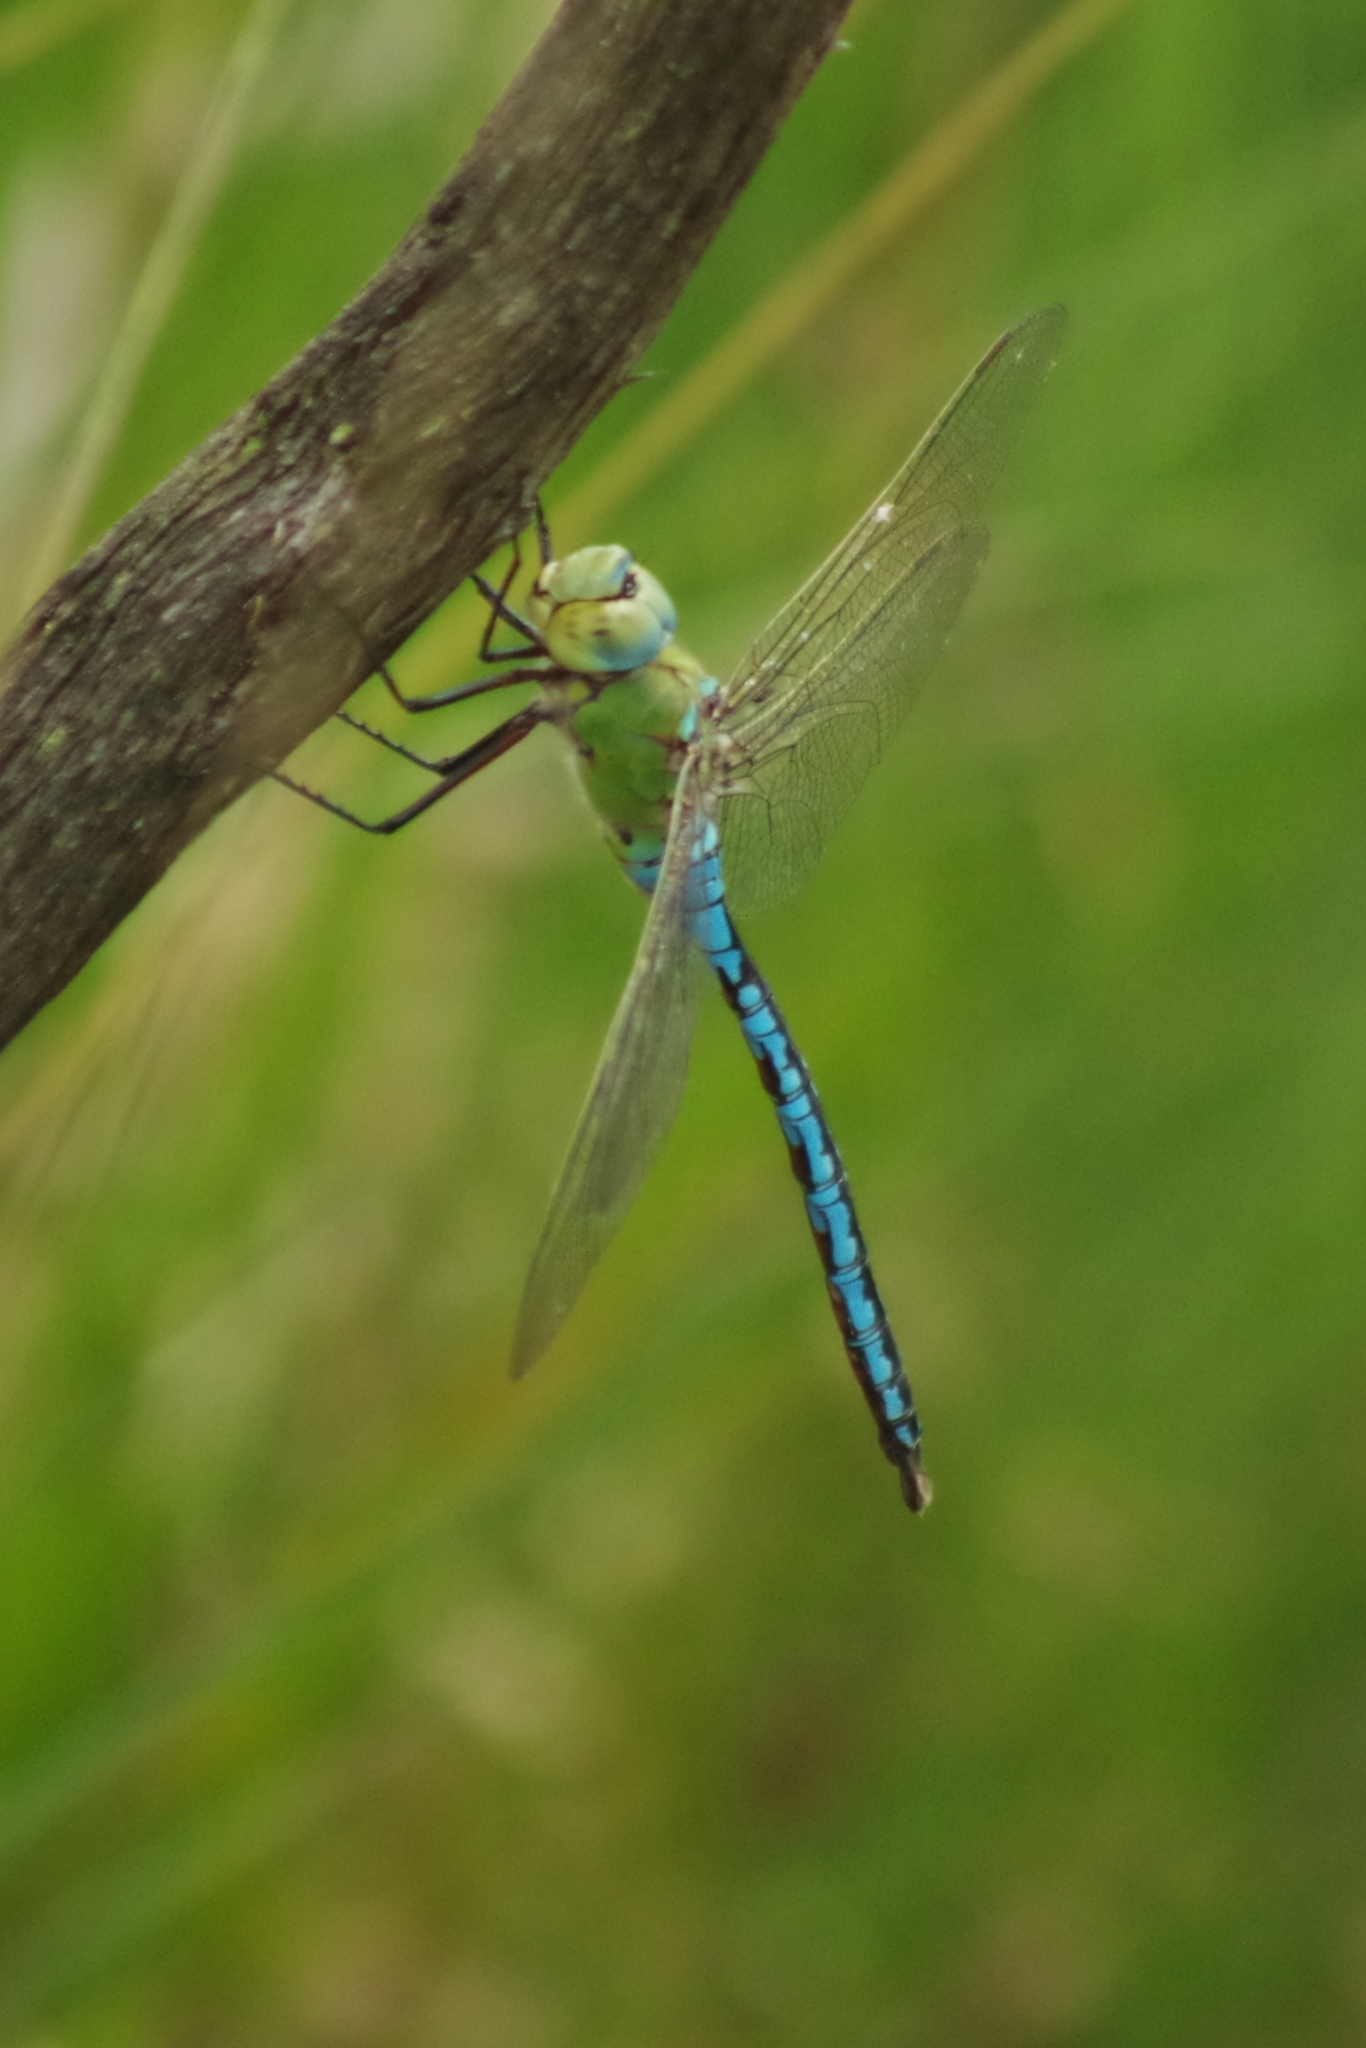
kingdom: Animalia
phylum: Arthropoda
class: Insecta
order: Odonata
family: Aeshnidae
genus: Anax
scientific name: Anax imperator
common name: Emperor dragonfly
